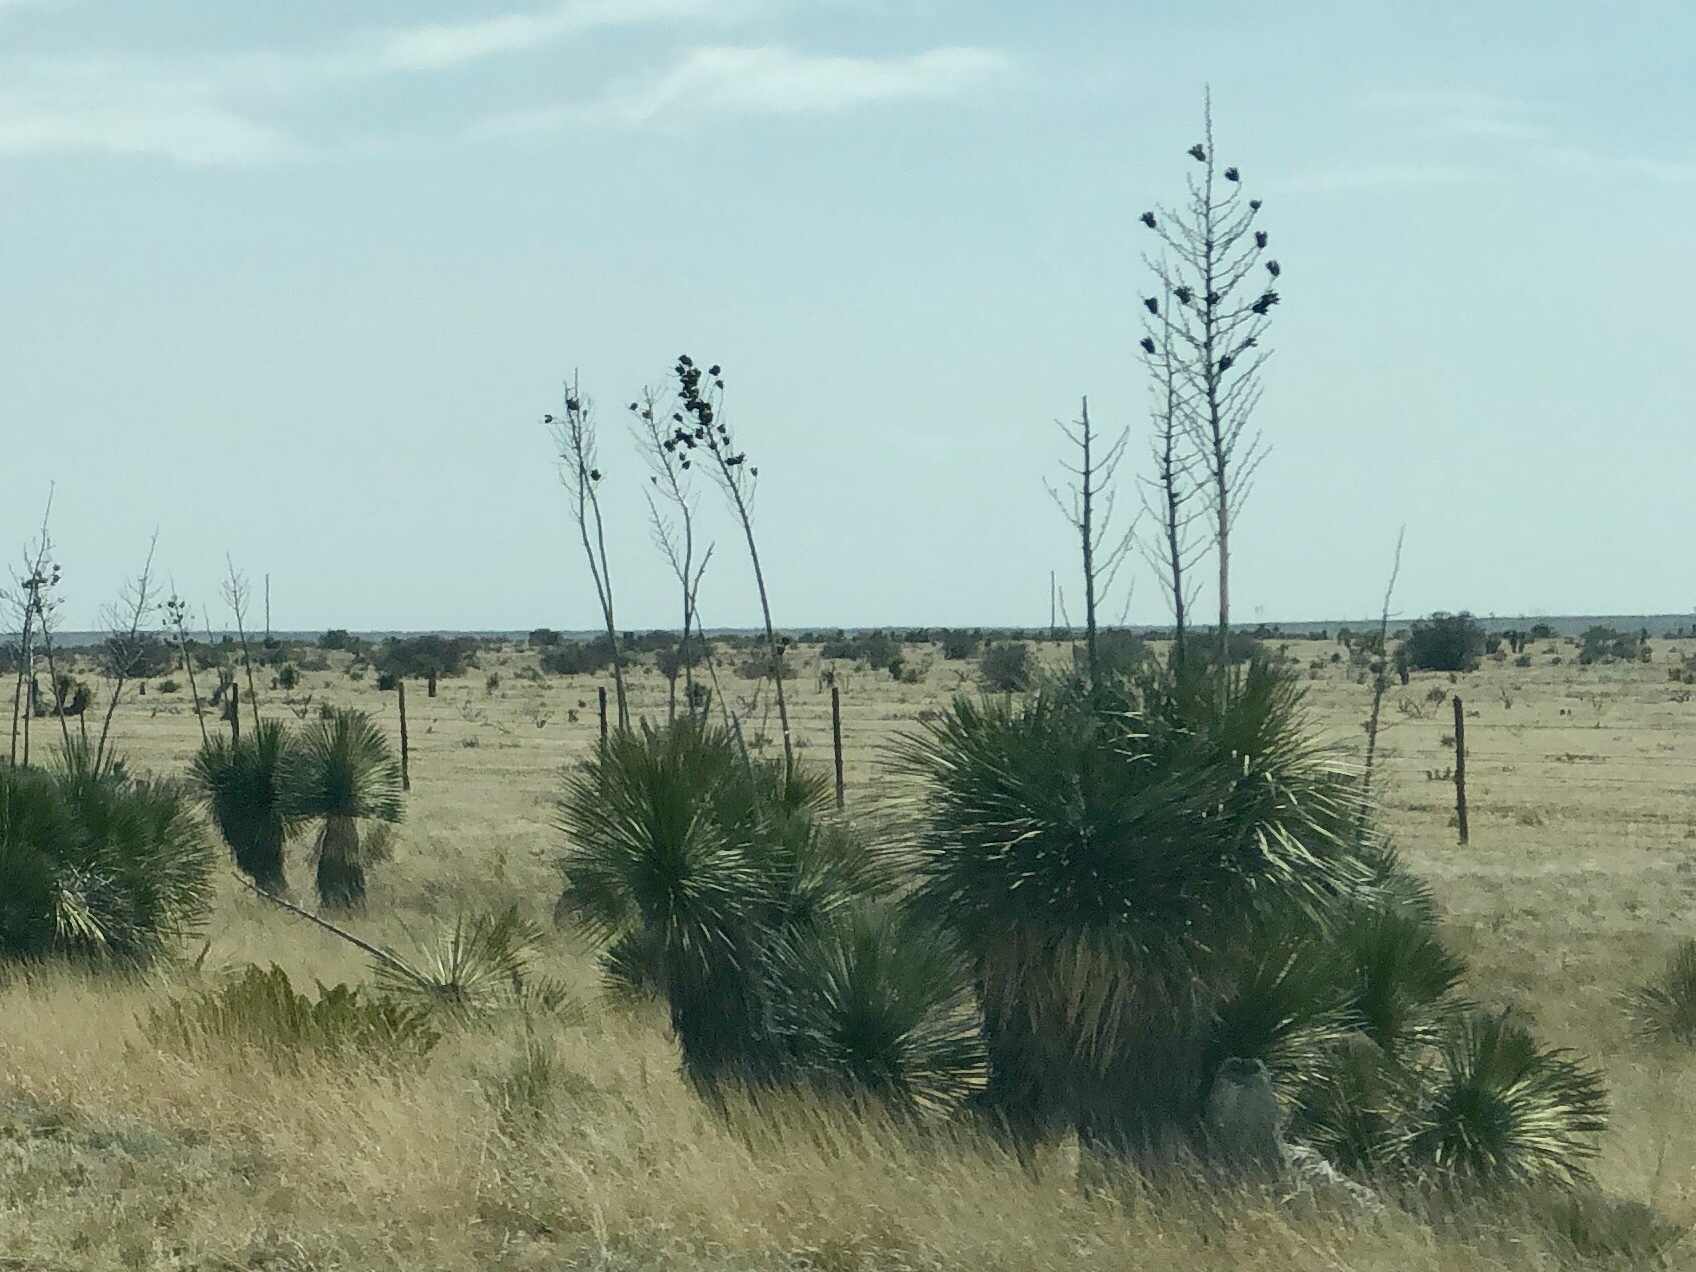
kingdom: Plantae
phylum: Tracheophyta
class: Liliopsida
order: Asparagales
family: Asparagaceae
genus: Yucca
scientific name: Yucca elata
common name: Palmella
